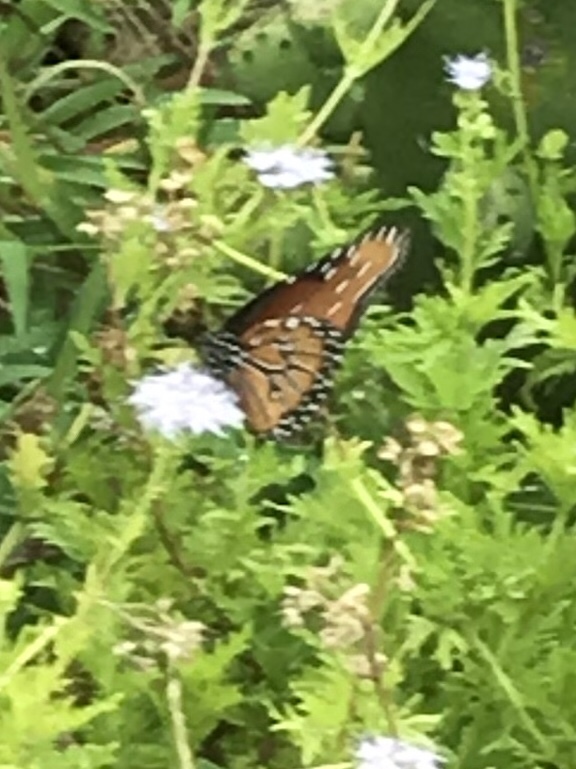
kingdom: Animalia
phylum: Arthropoda
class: Insecta
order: Lepidoptera
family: Nymphalidae
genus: Danaus
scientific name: Danaus gilippus
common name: Queen
